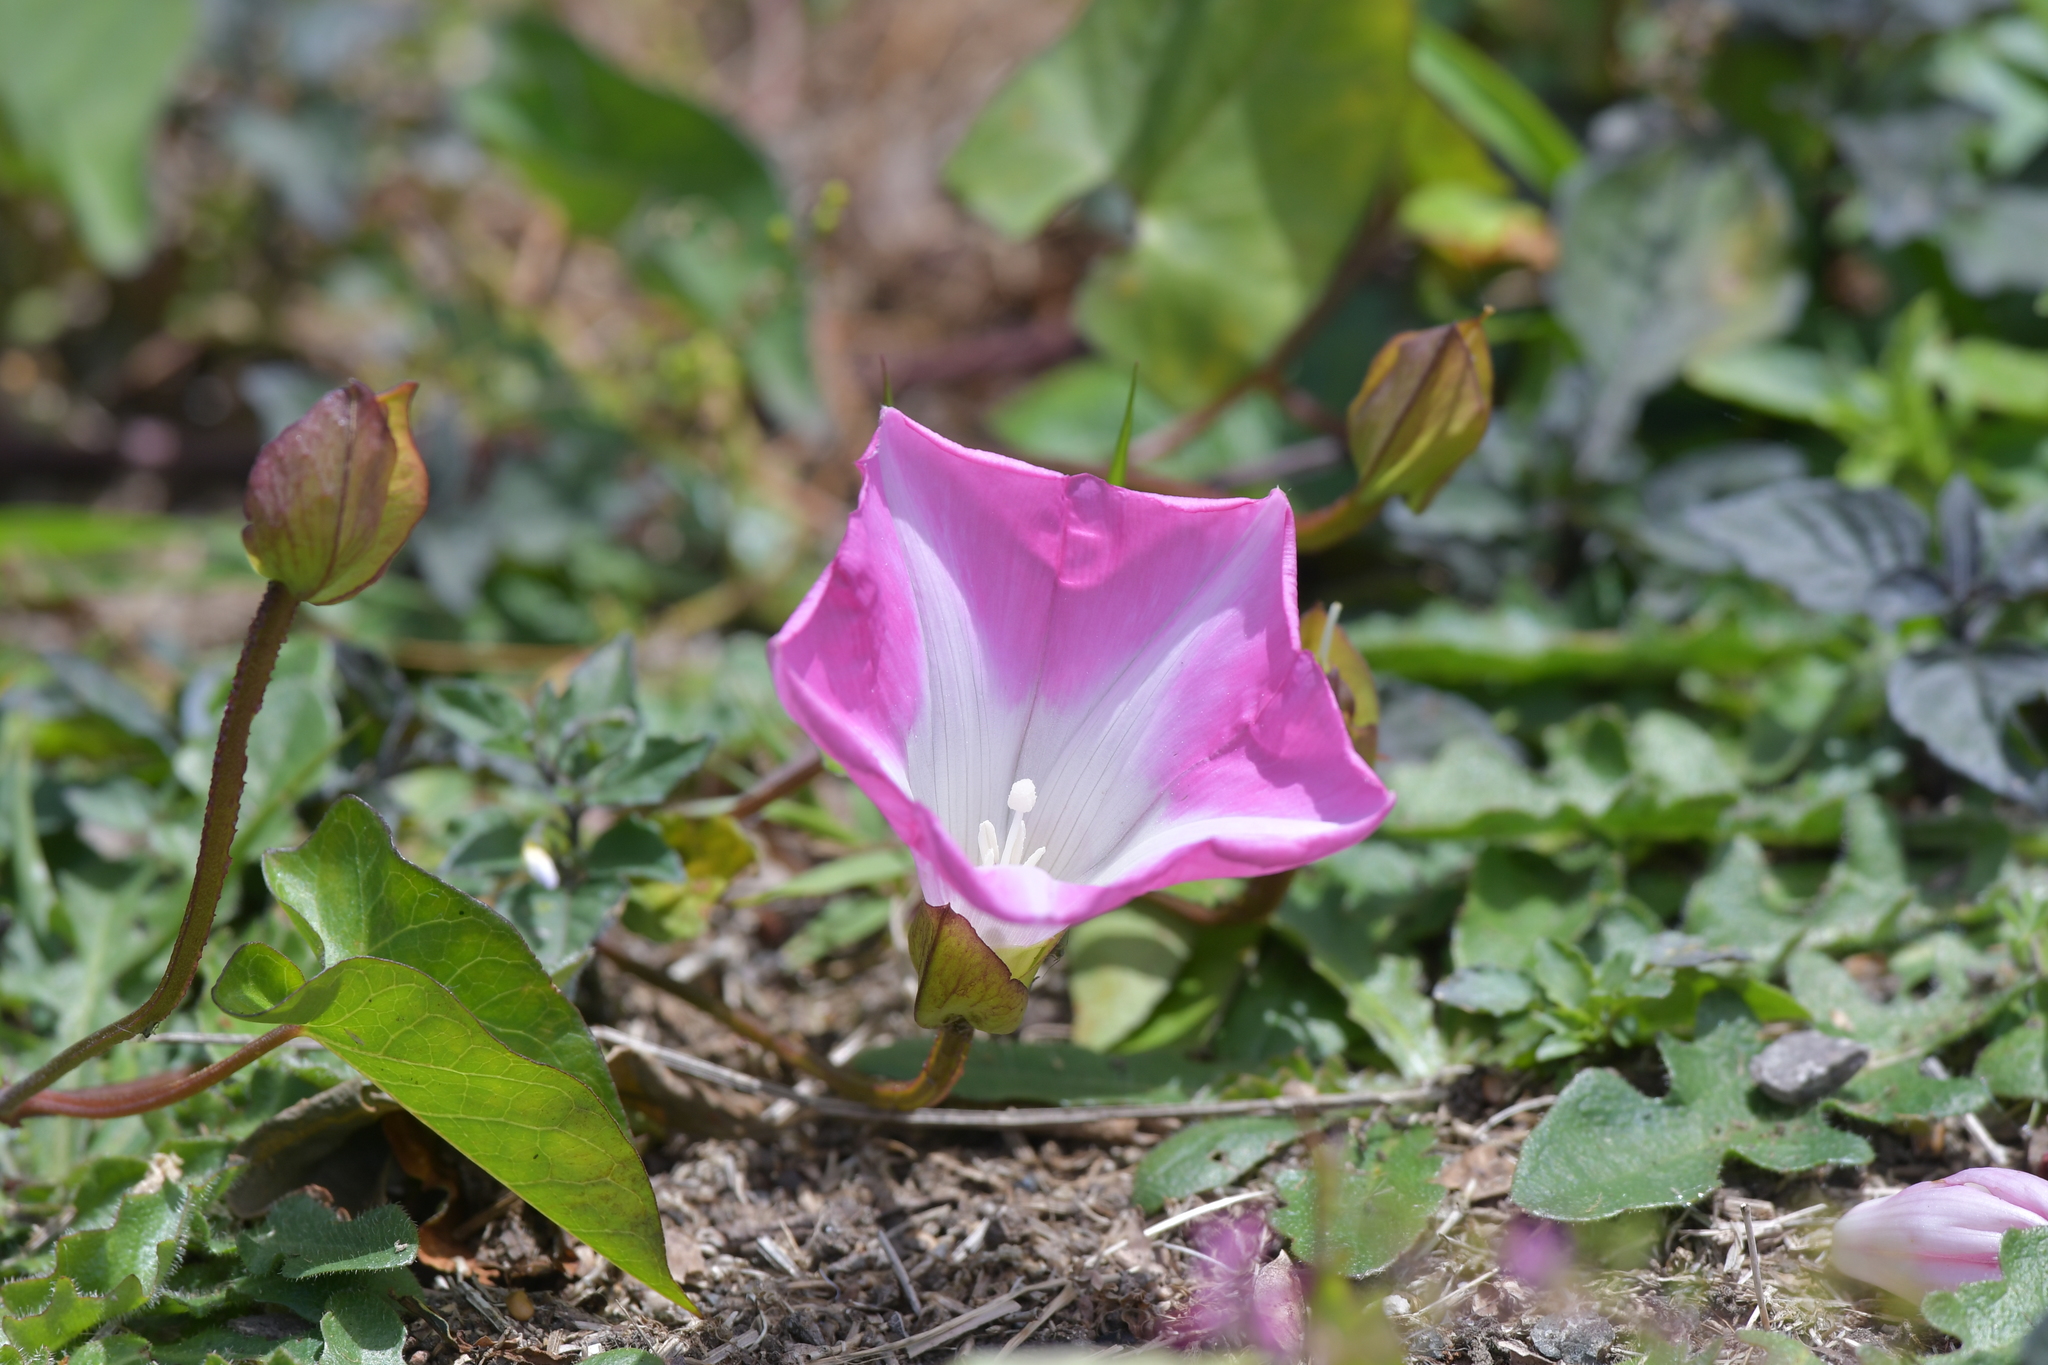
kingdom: Plantae
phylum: Tracheophyta
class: Magnoliopsida
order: Solanales
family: Convolvulaceae
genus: Calystegia
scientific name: Calystegia sepium
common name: Hedge bindweed
